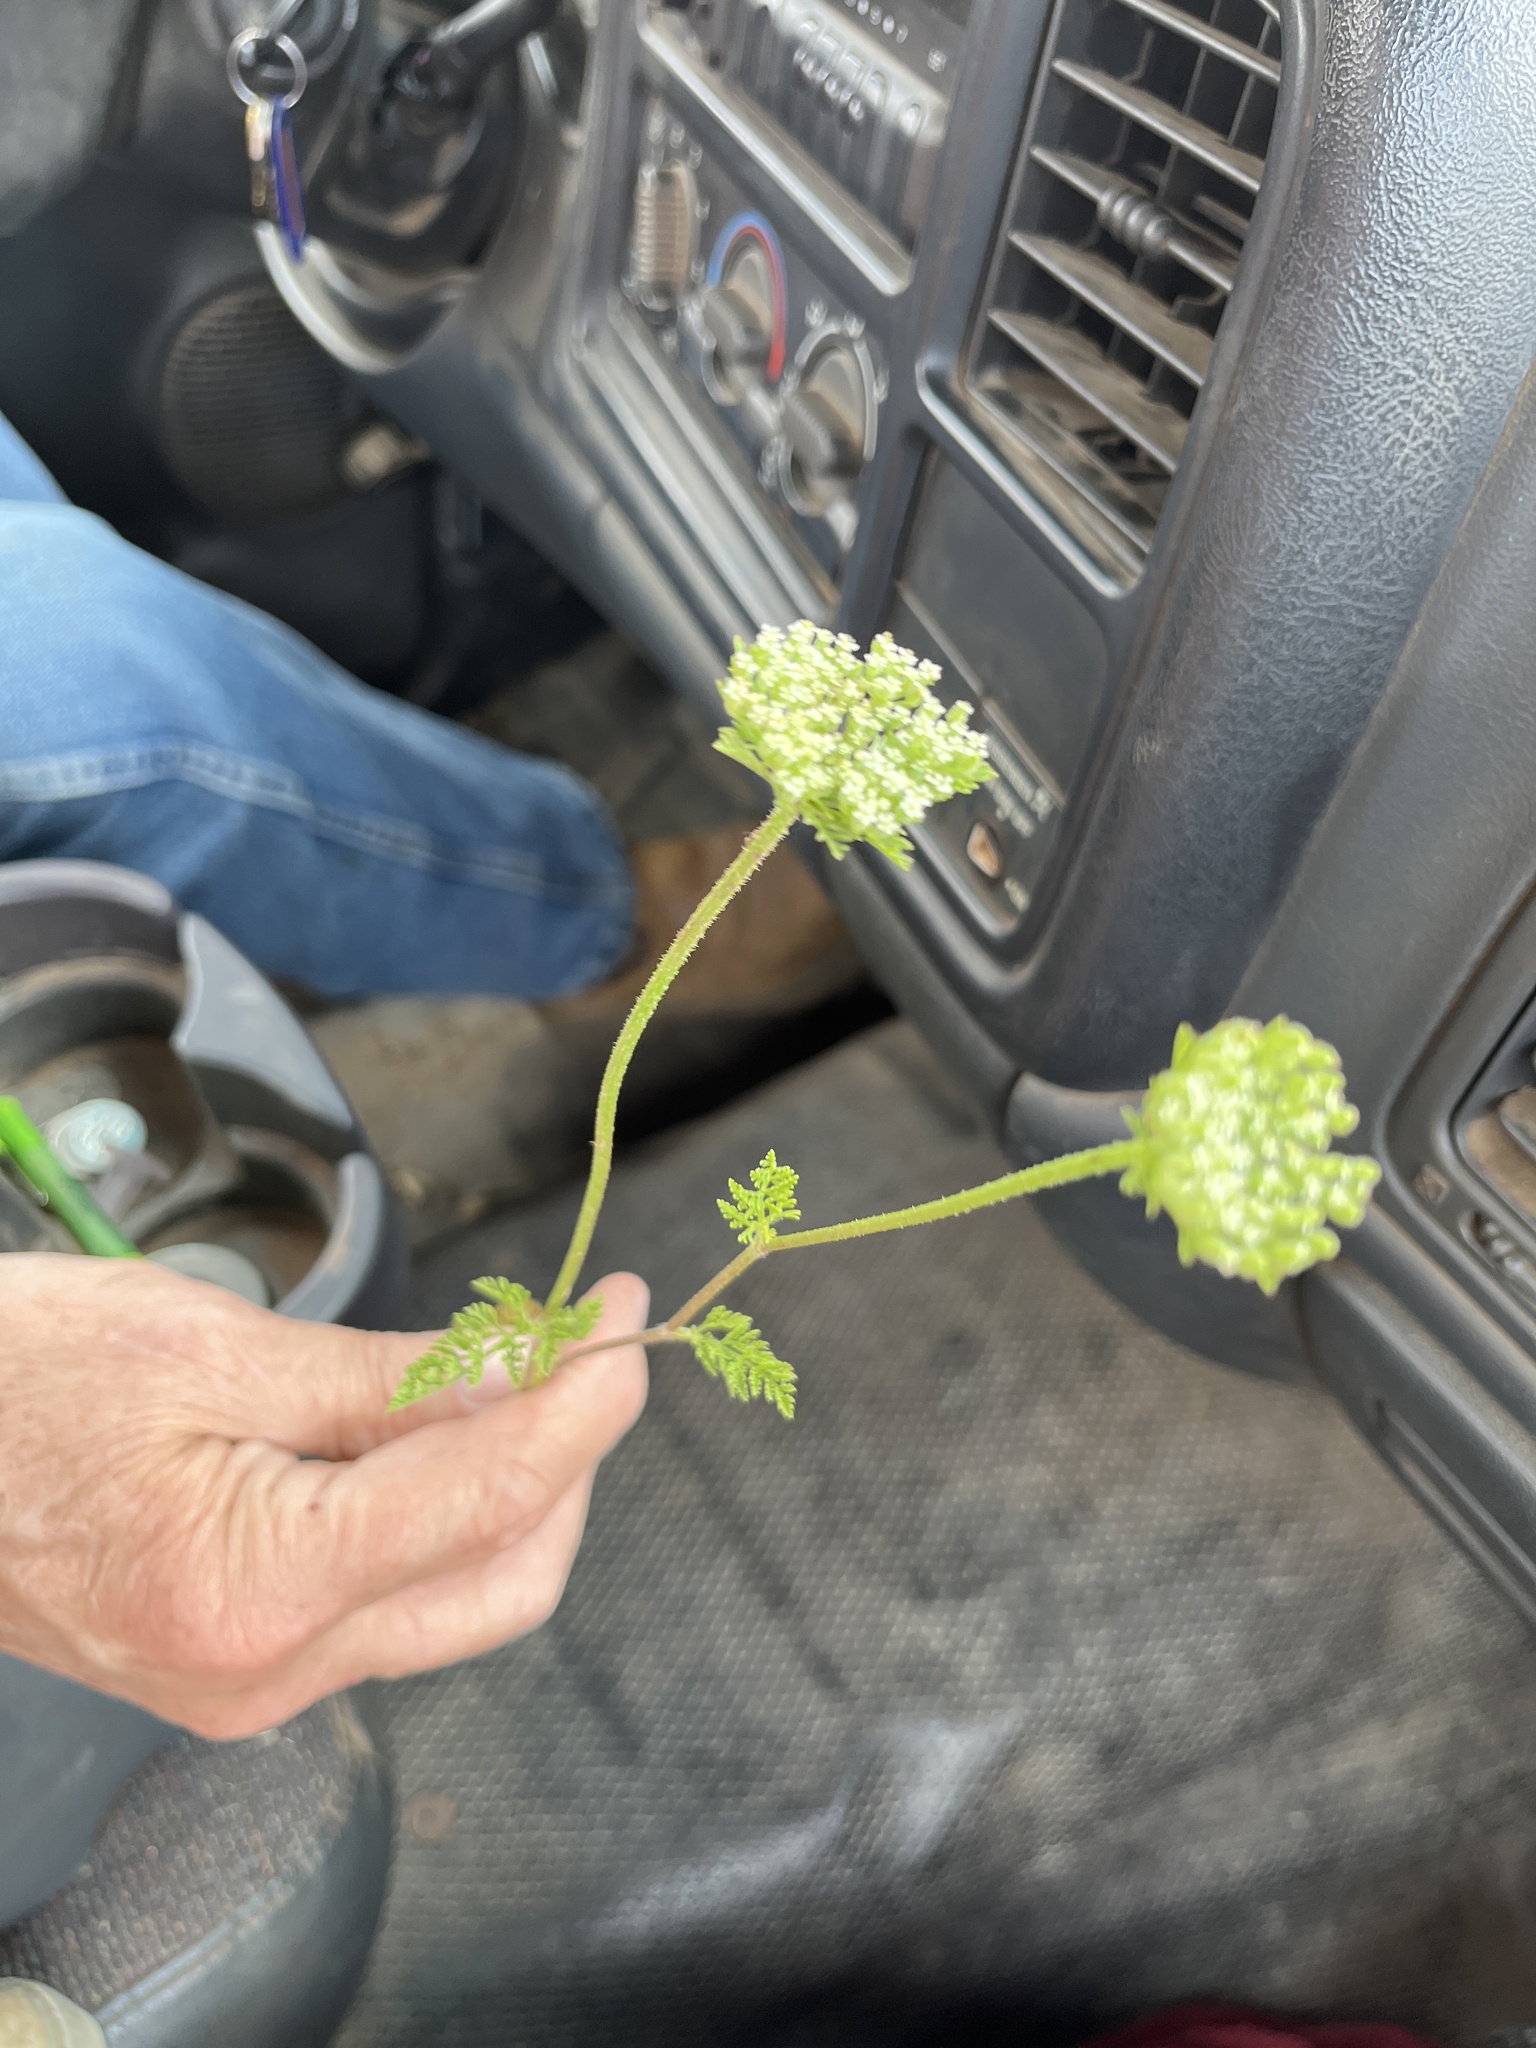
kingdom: Plantae
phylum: Tracheophyta
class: Magnoliopsida
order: Apiales
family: Apiaceae
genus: Daucus
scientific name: Daucus pusillus
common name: Southwest wild carrot
